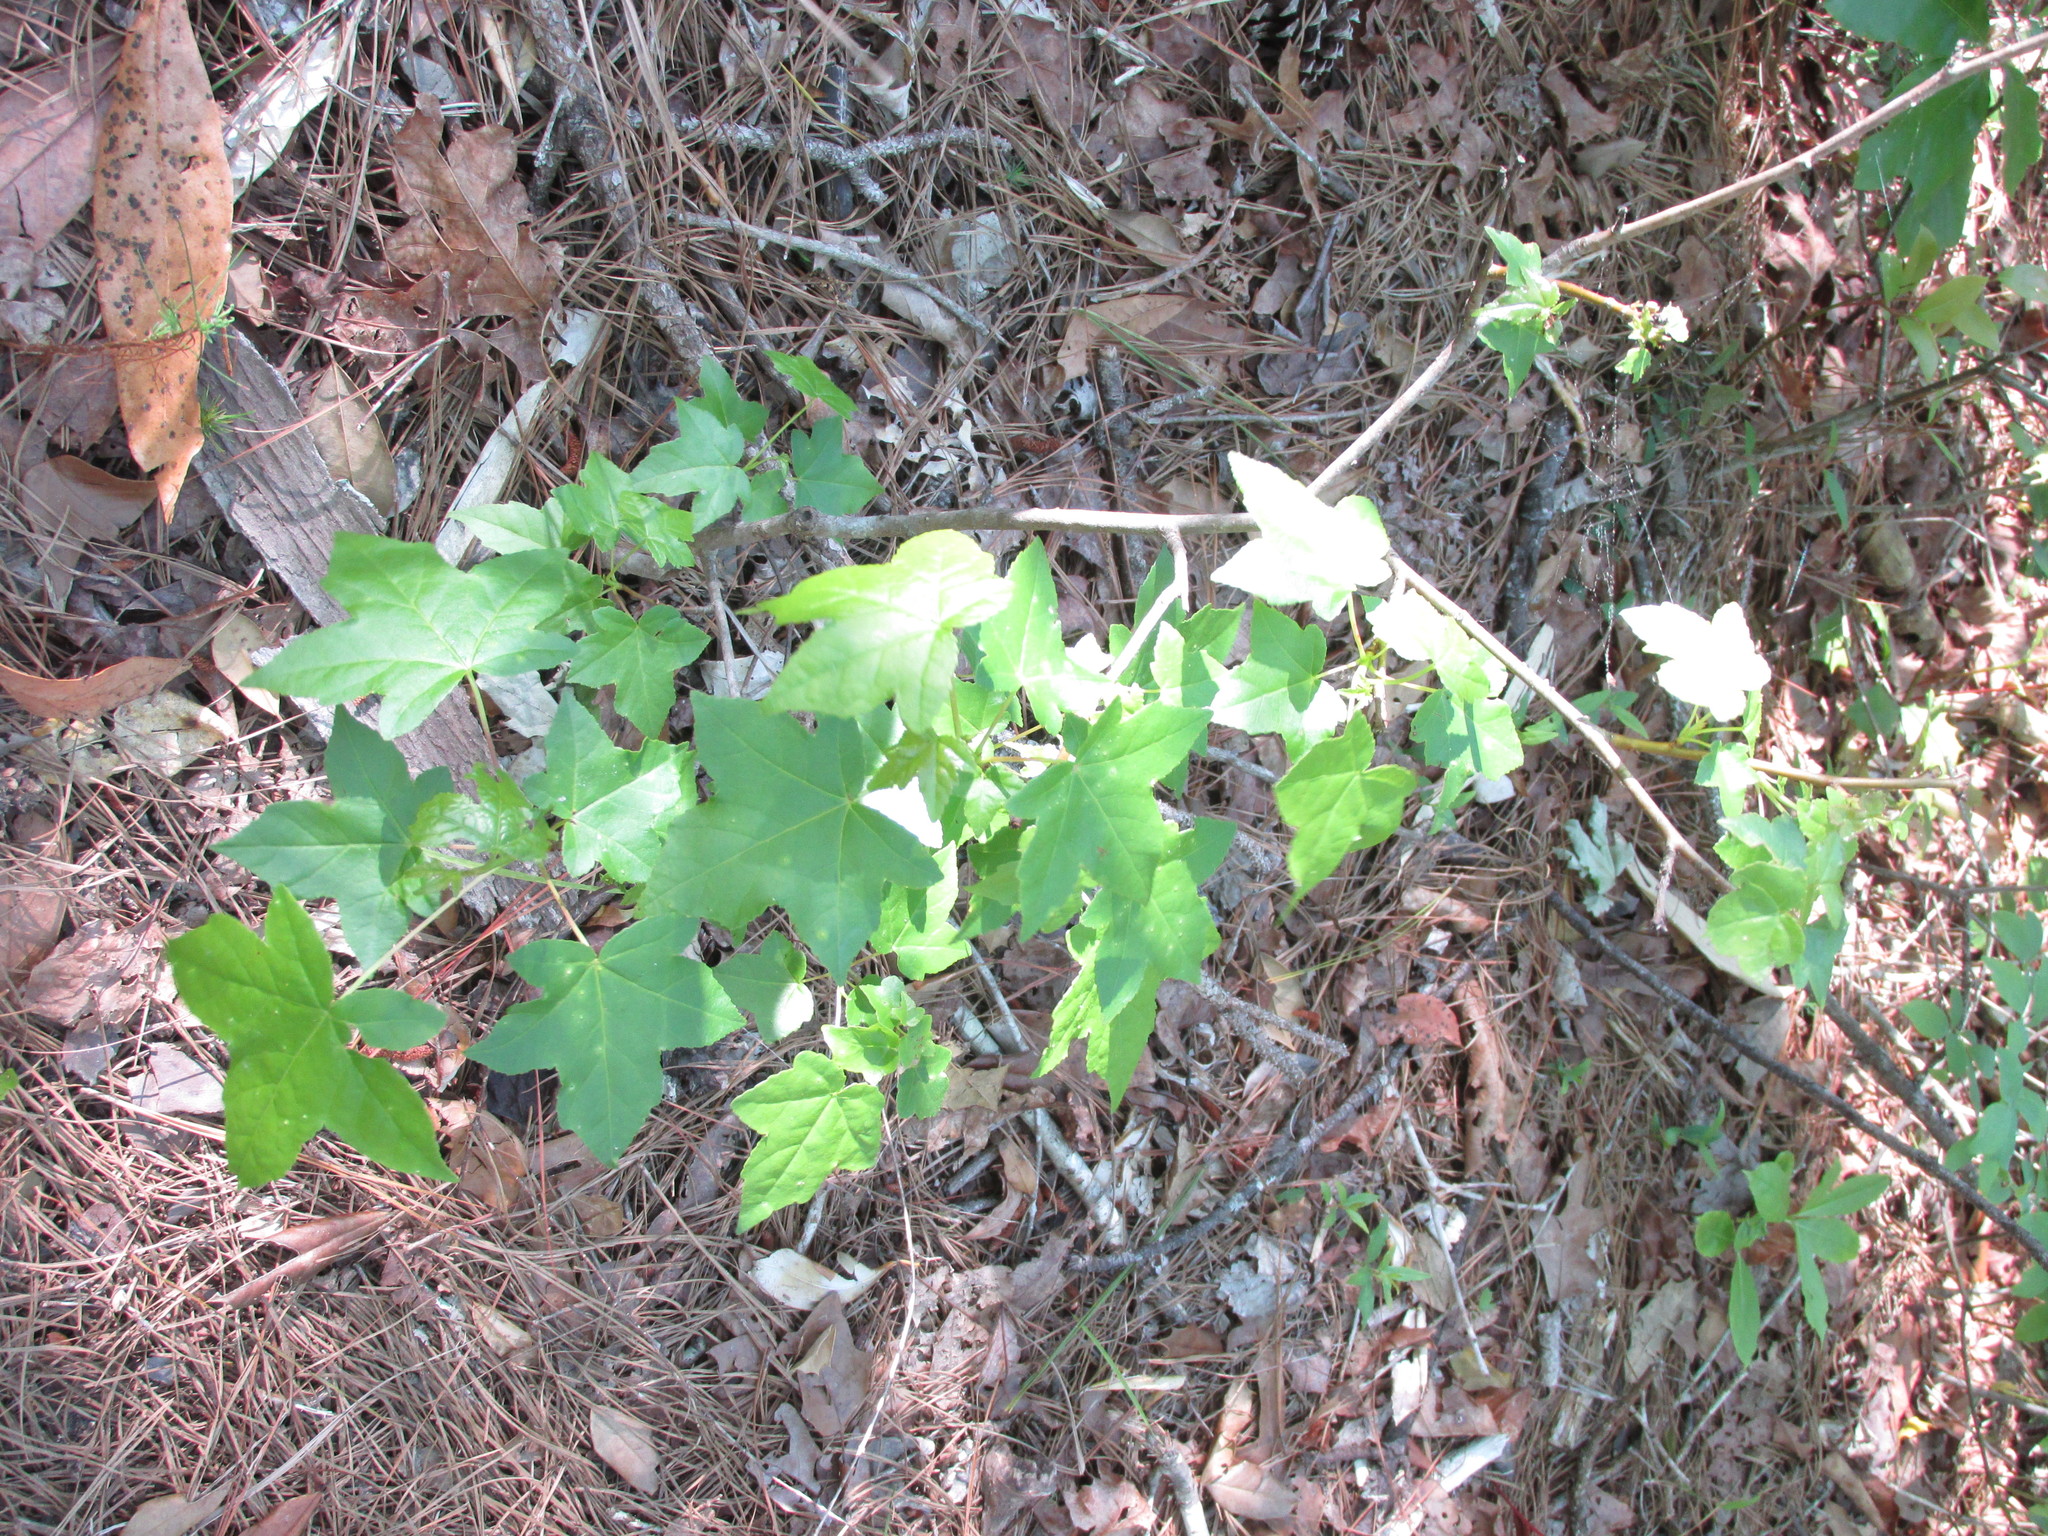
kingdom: Plantae
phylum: Tracheophyta
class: Magnoliopsida
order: Saxifragales
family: Altingiaceae
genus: Liquidambar
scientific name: Liquidambar styraciflua
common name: Sweet gum
